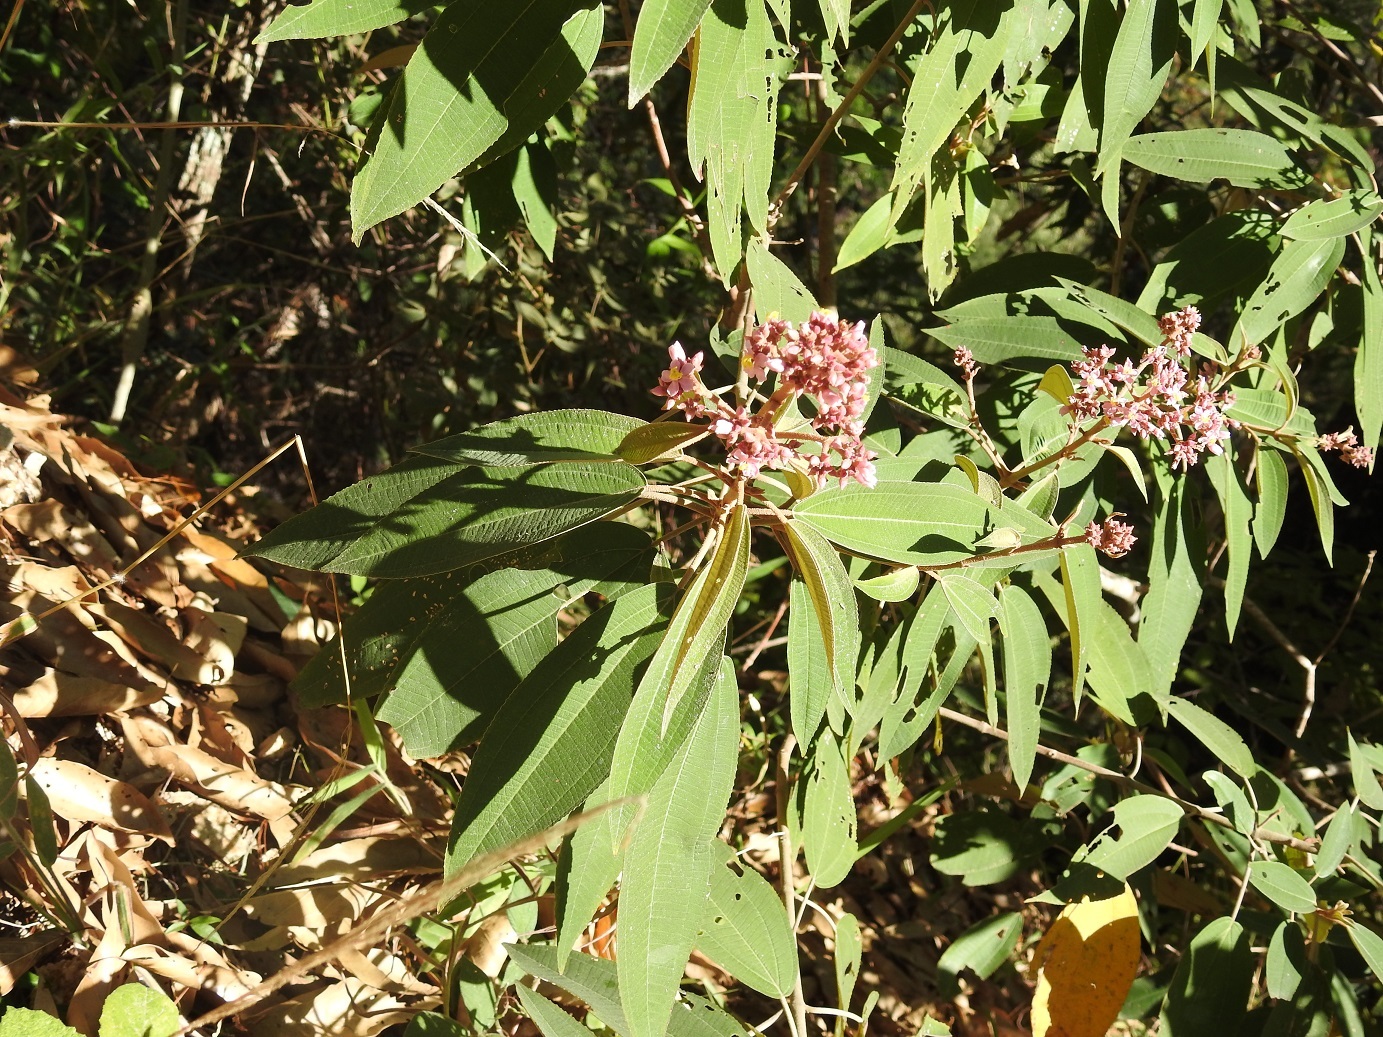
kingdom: Plantae
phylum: Tracheophyta
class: Magnoliopsida
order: Myrtales
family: Melastomataceae
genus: Miconia
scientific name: Miconia xalapensis
